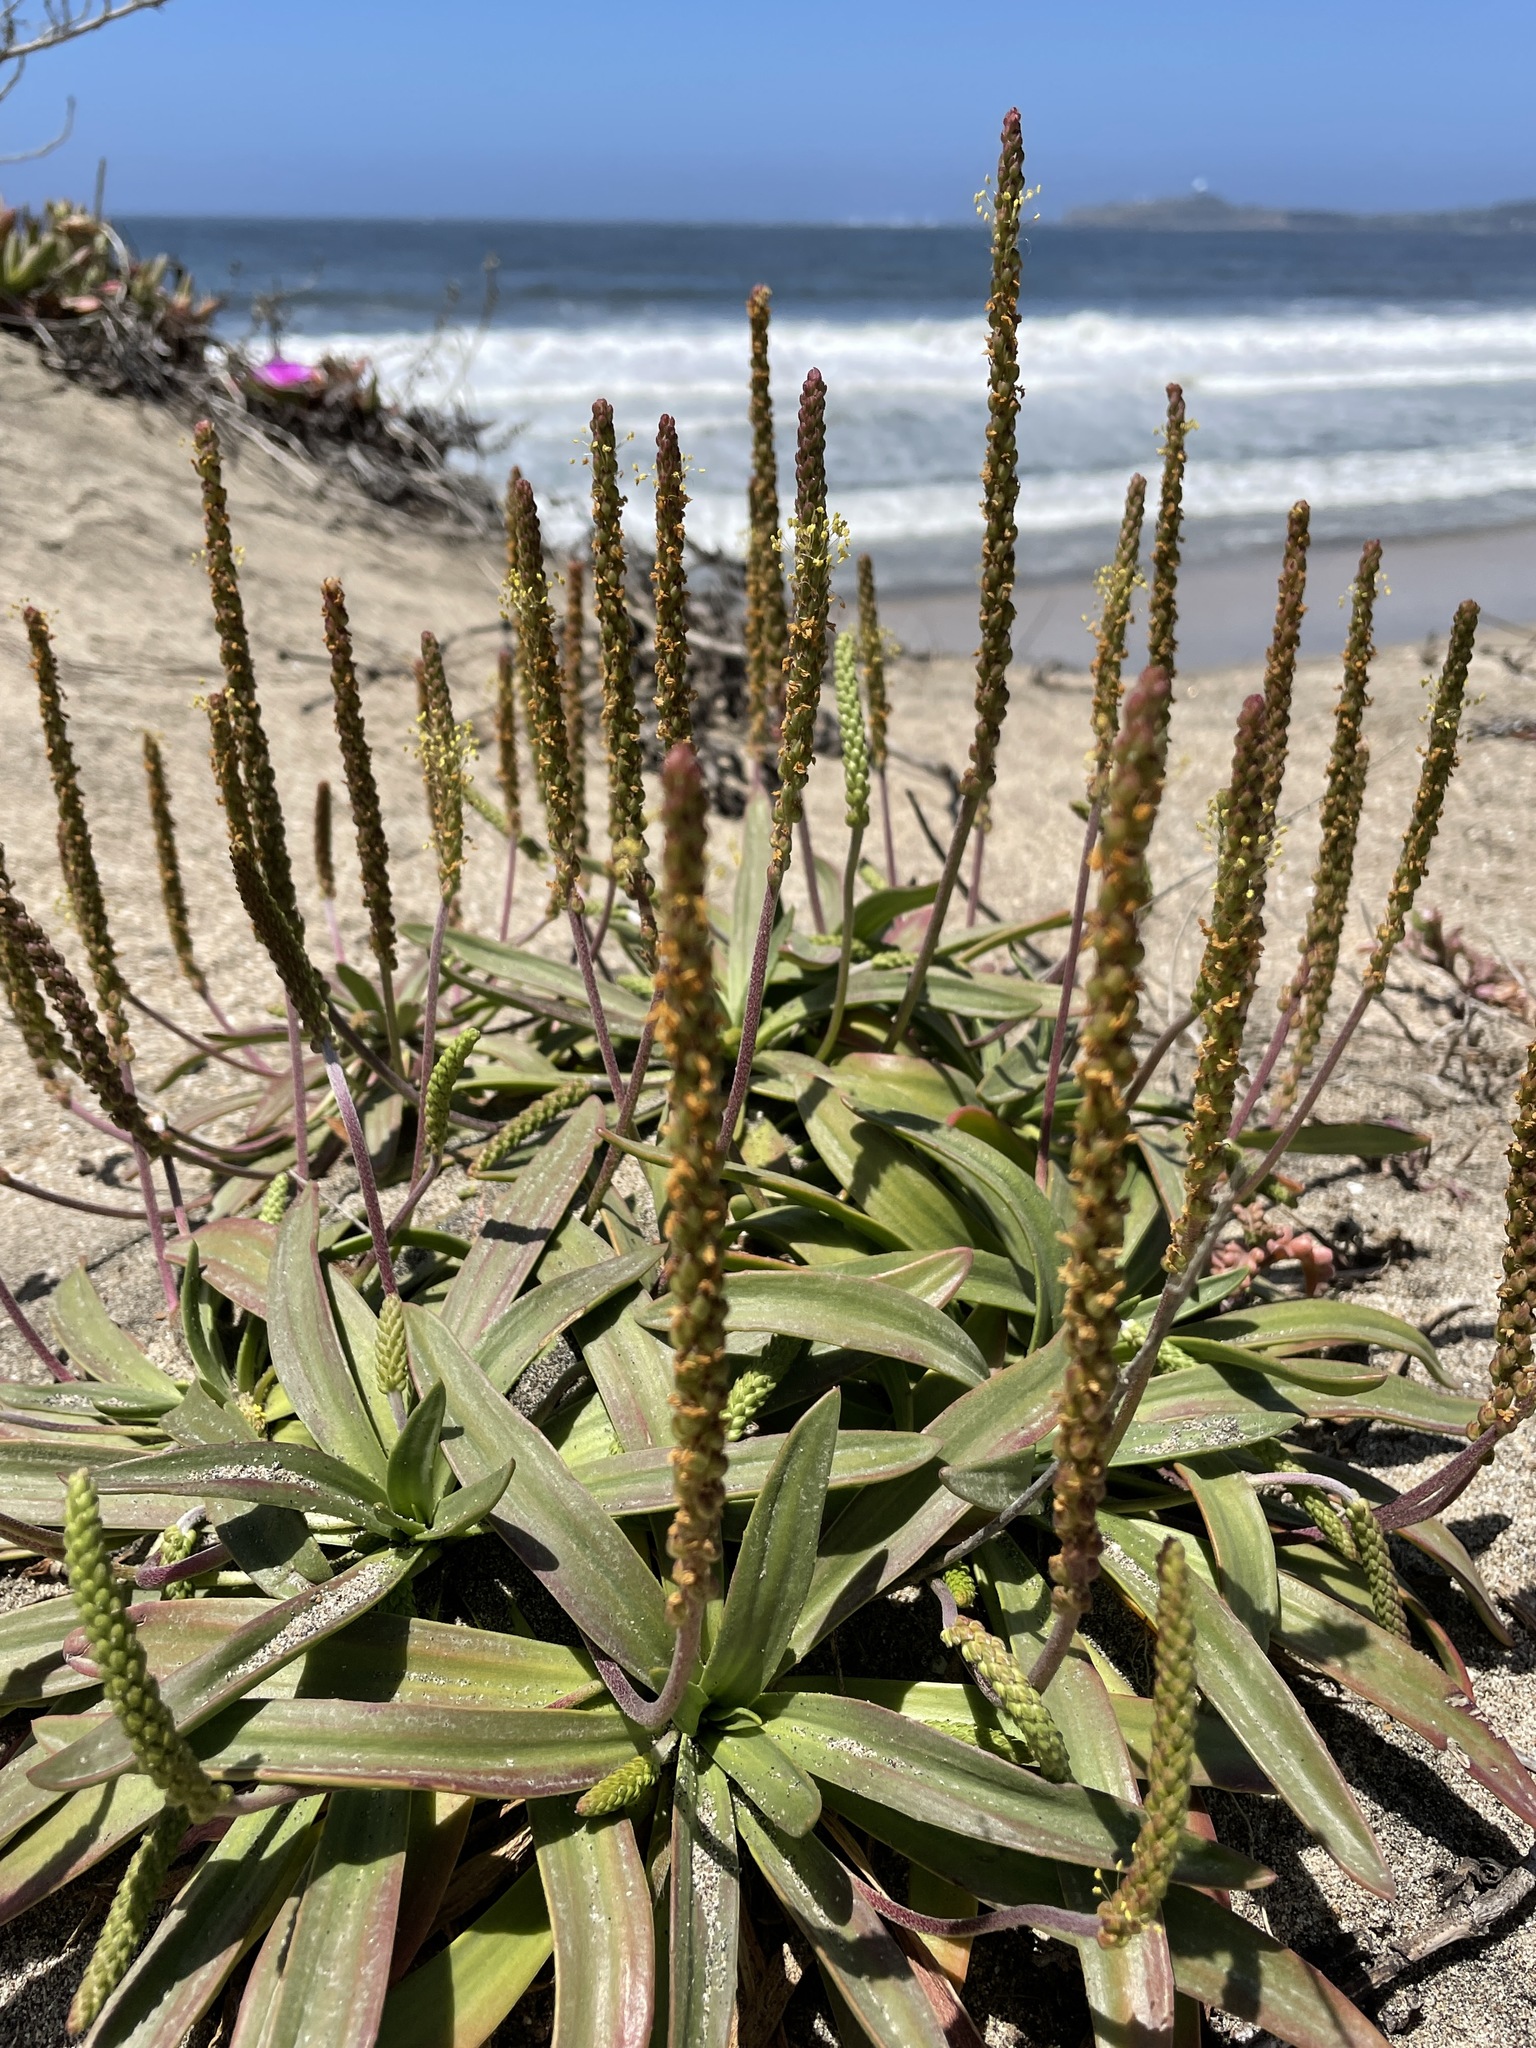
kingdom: Plantae
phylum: Tracheophyta
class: Magnoliopsida
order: Lamiales
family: Plantaginaceae
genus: Plantago
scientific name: Plantago maritima
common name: Sea plantain
